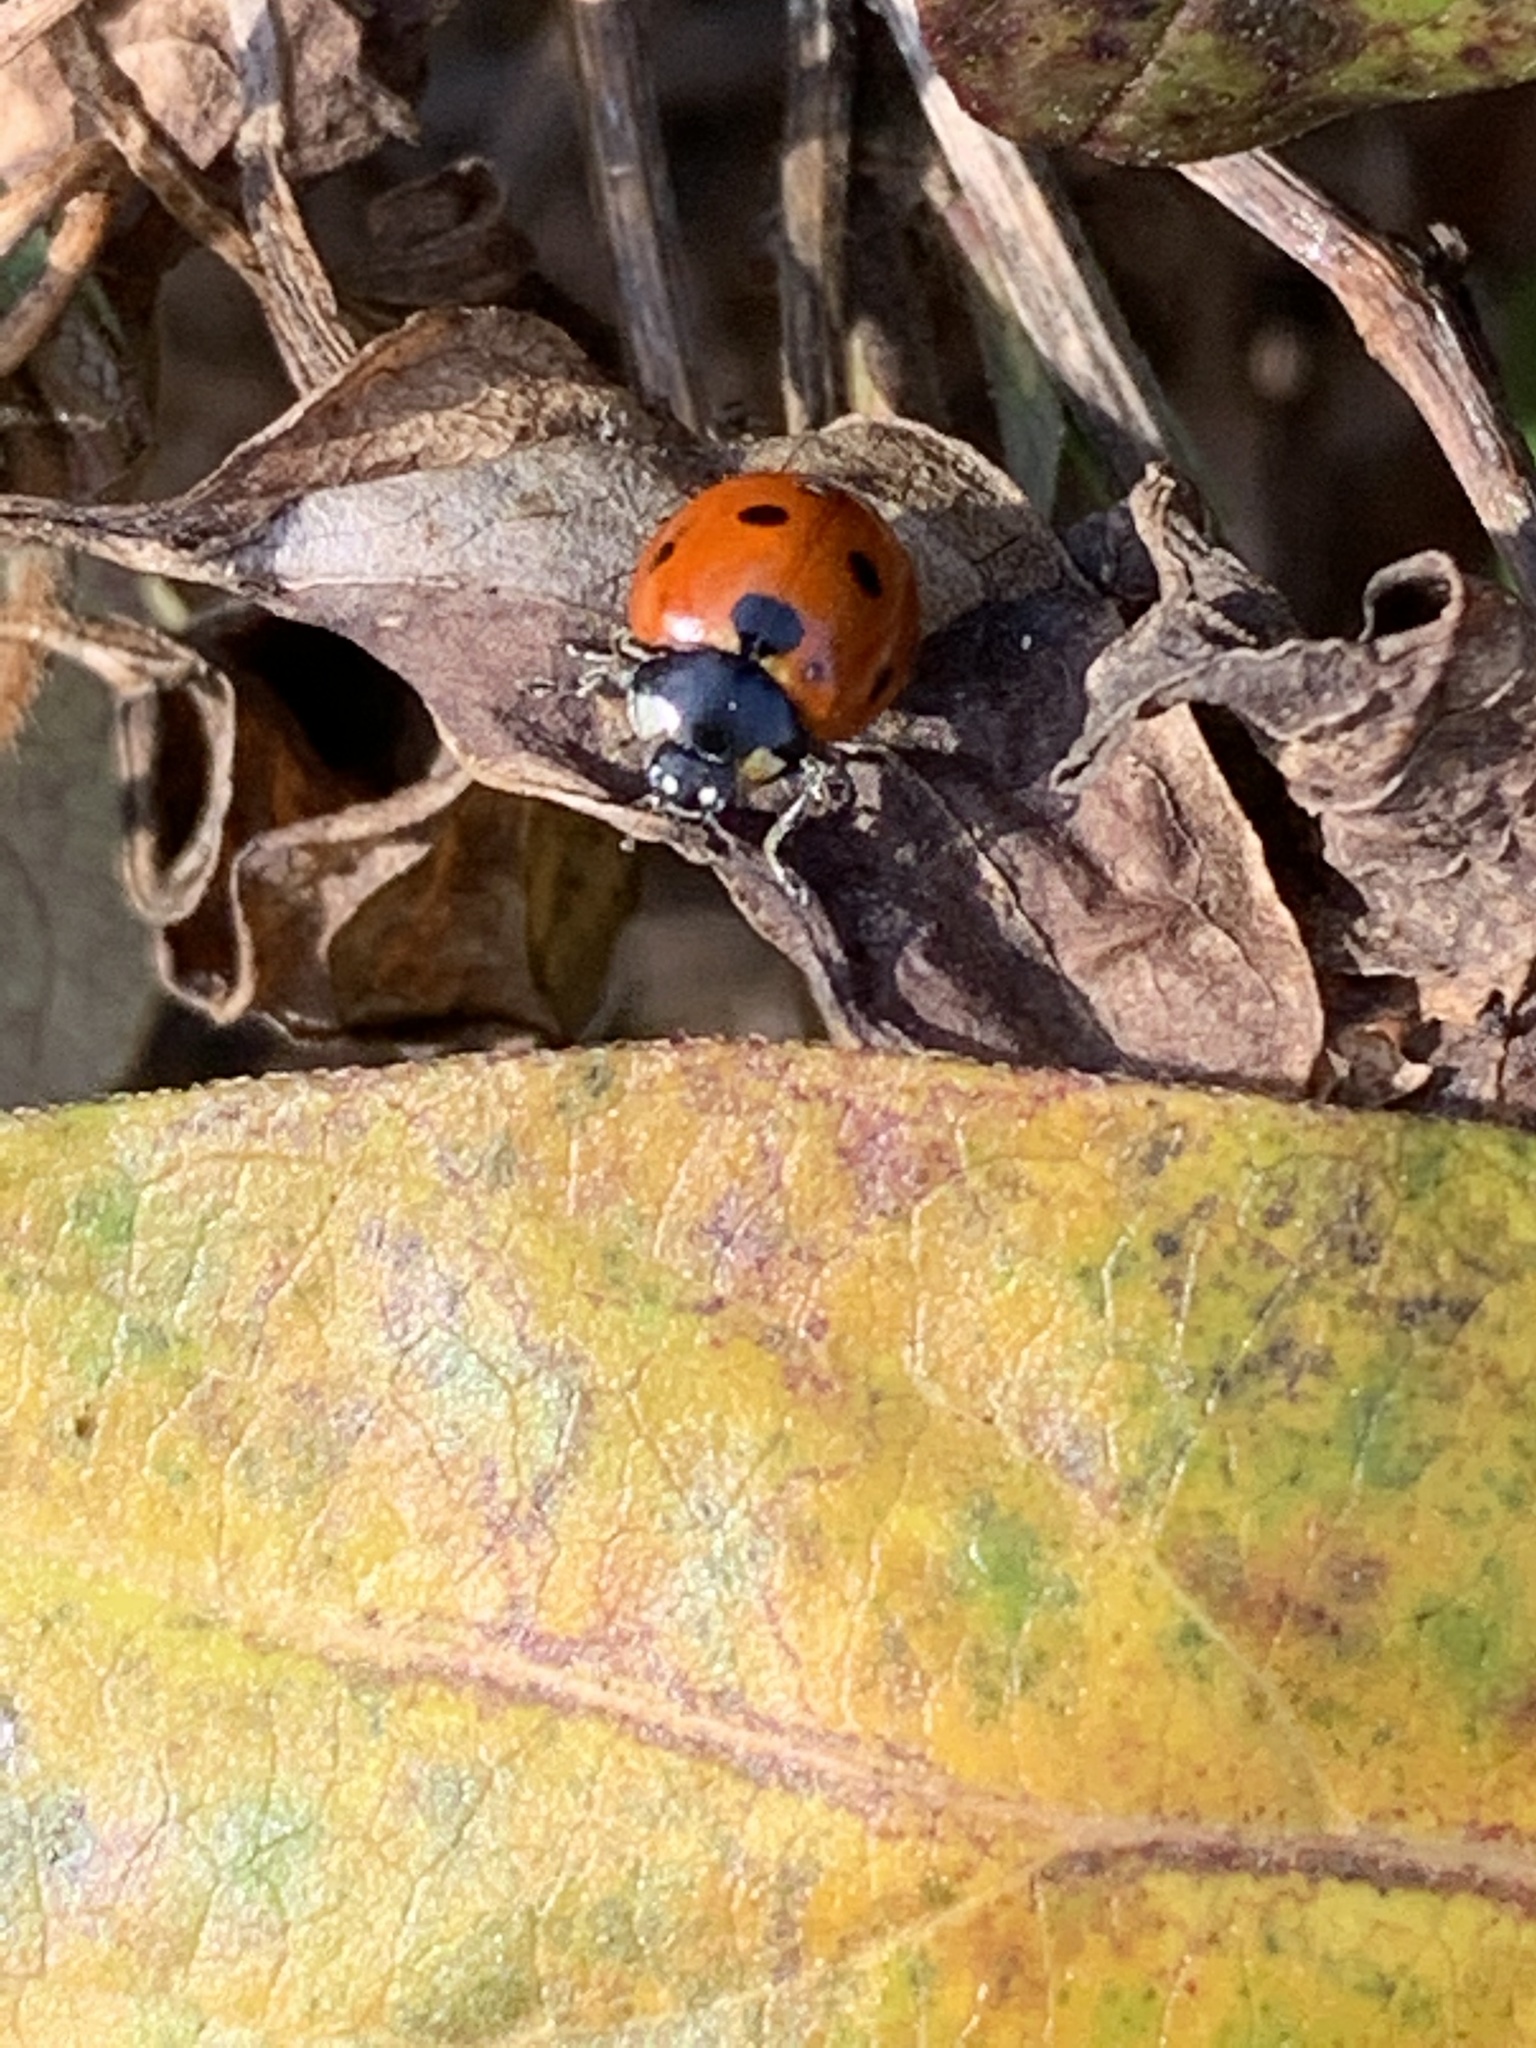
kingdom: Animalia
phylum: Arthropoda
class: Insecta
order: Coleoptera
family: Coccinellidae
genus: Coccinella
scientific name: Coccinella septempunctata
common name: Sevenspotted lady beetle
